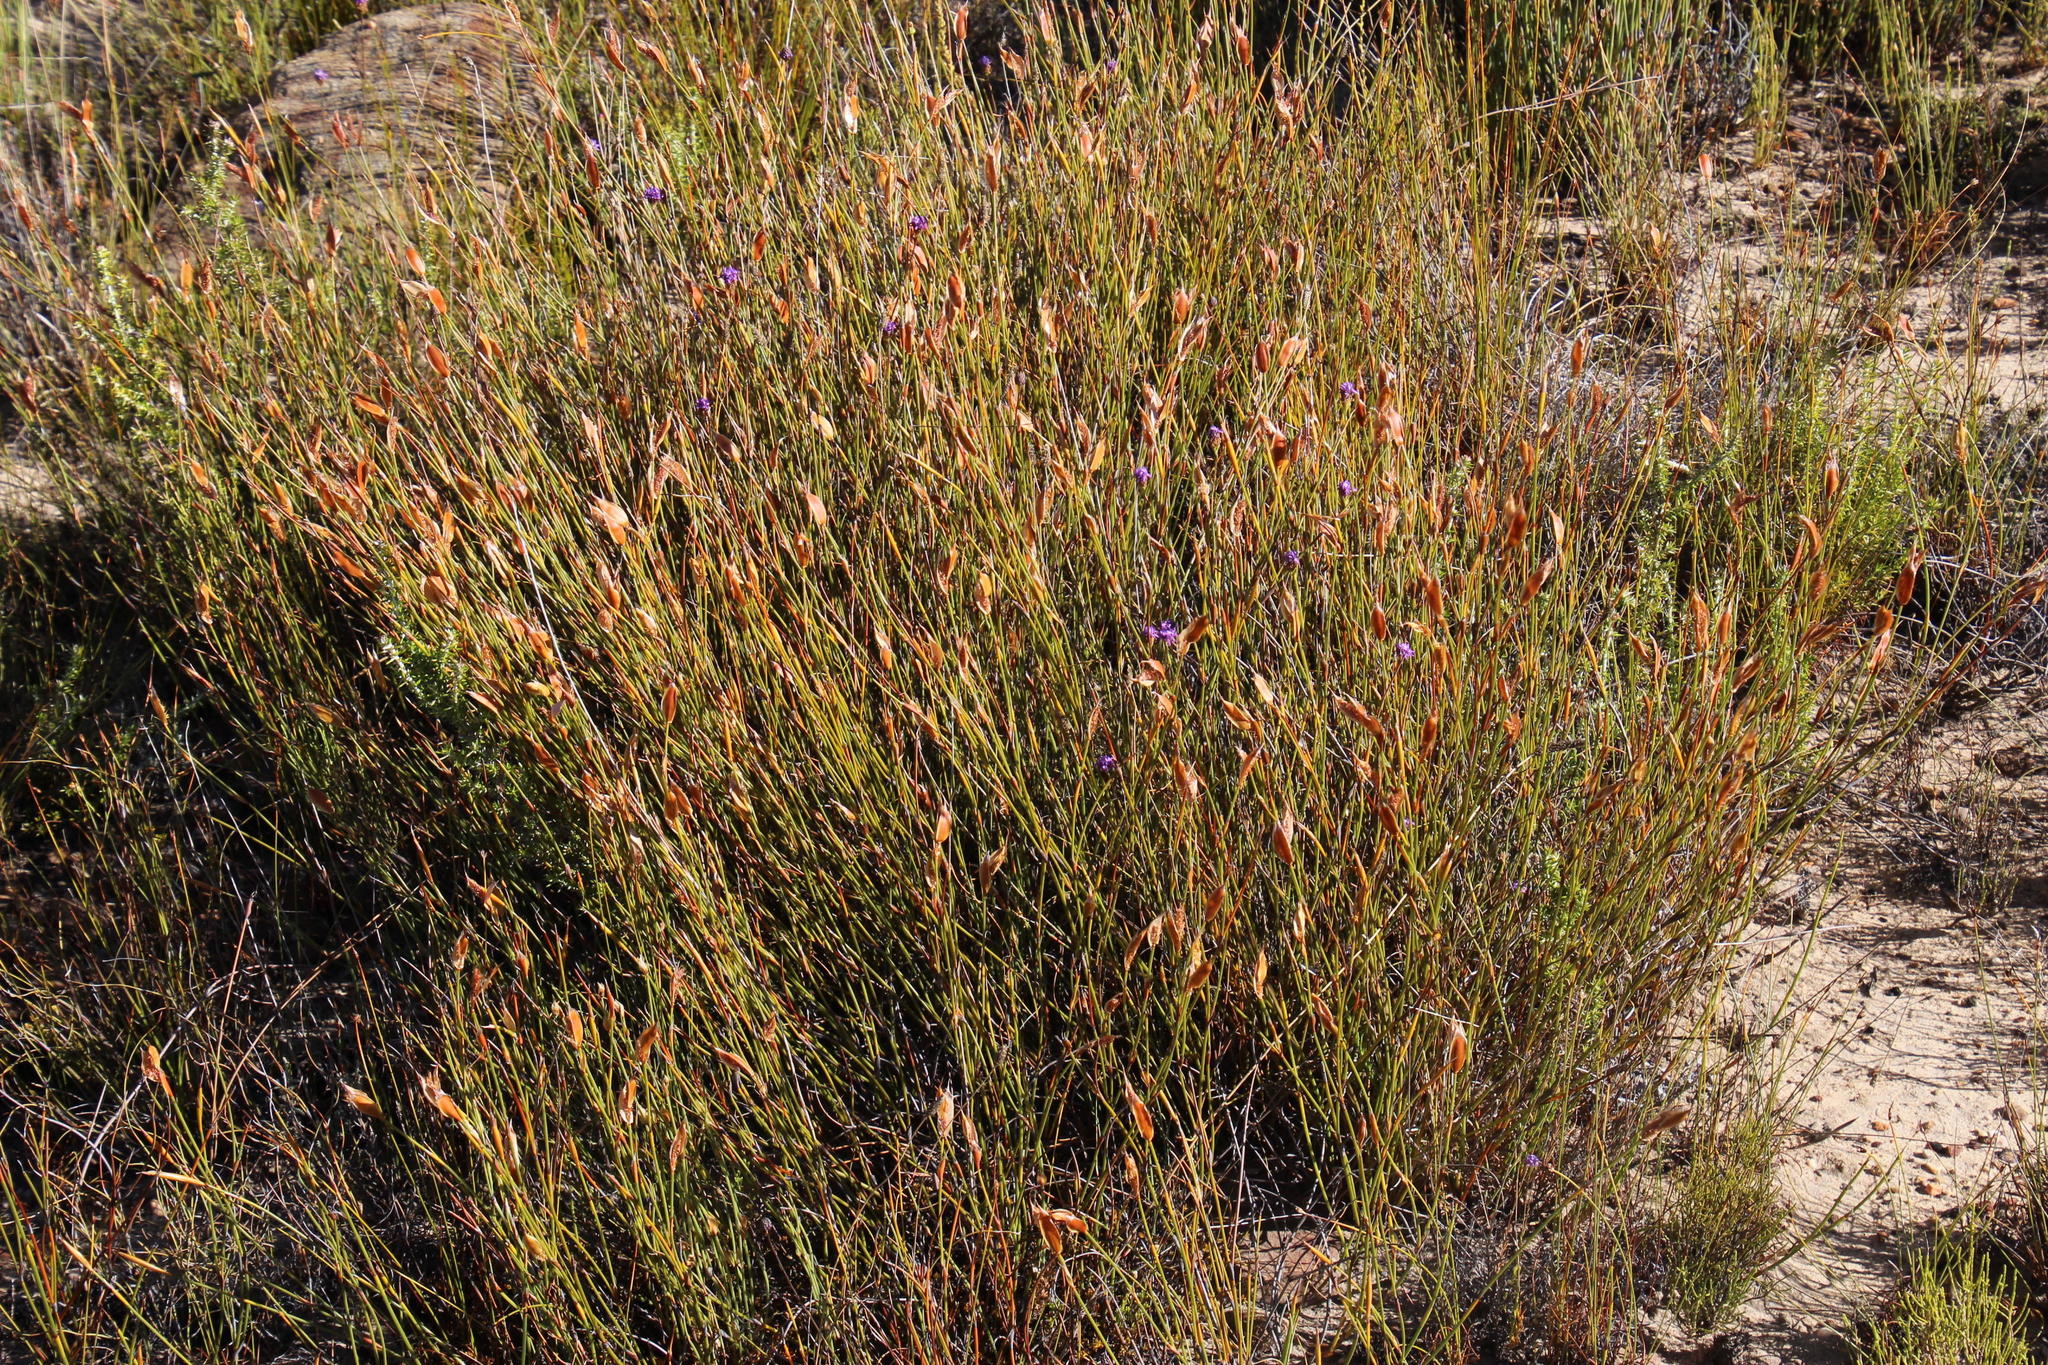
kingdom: Plantae
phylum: Tracheophyta
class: Magnoliopsida
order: Lamiales
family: Scrophulariaceae
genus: Pseudoselago
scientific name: Pseudoselago similis
